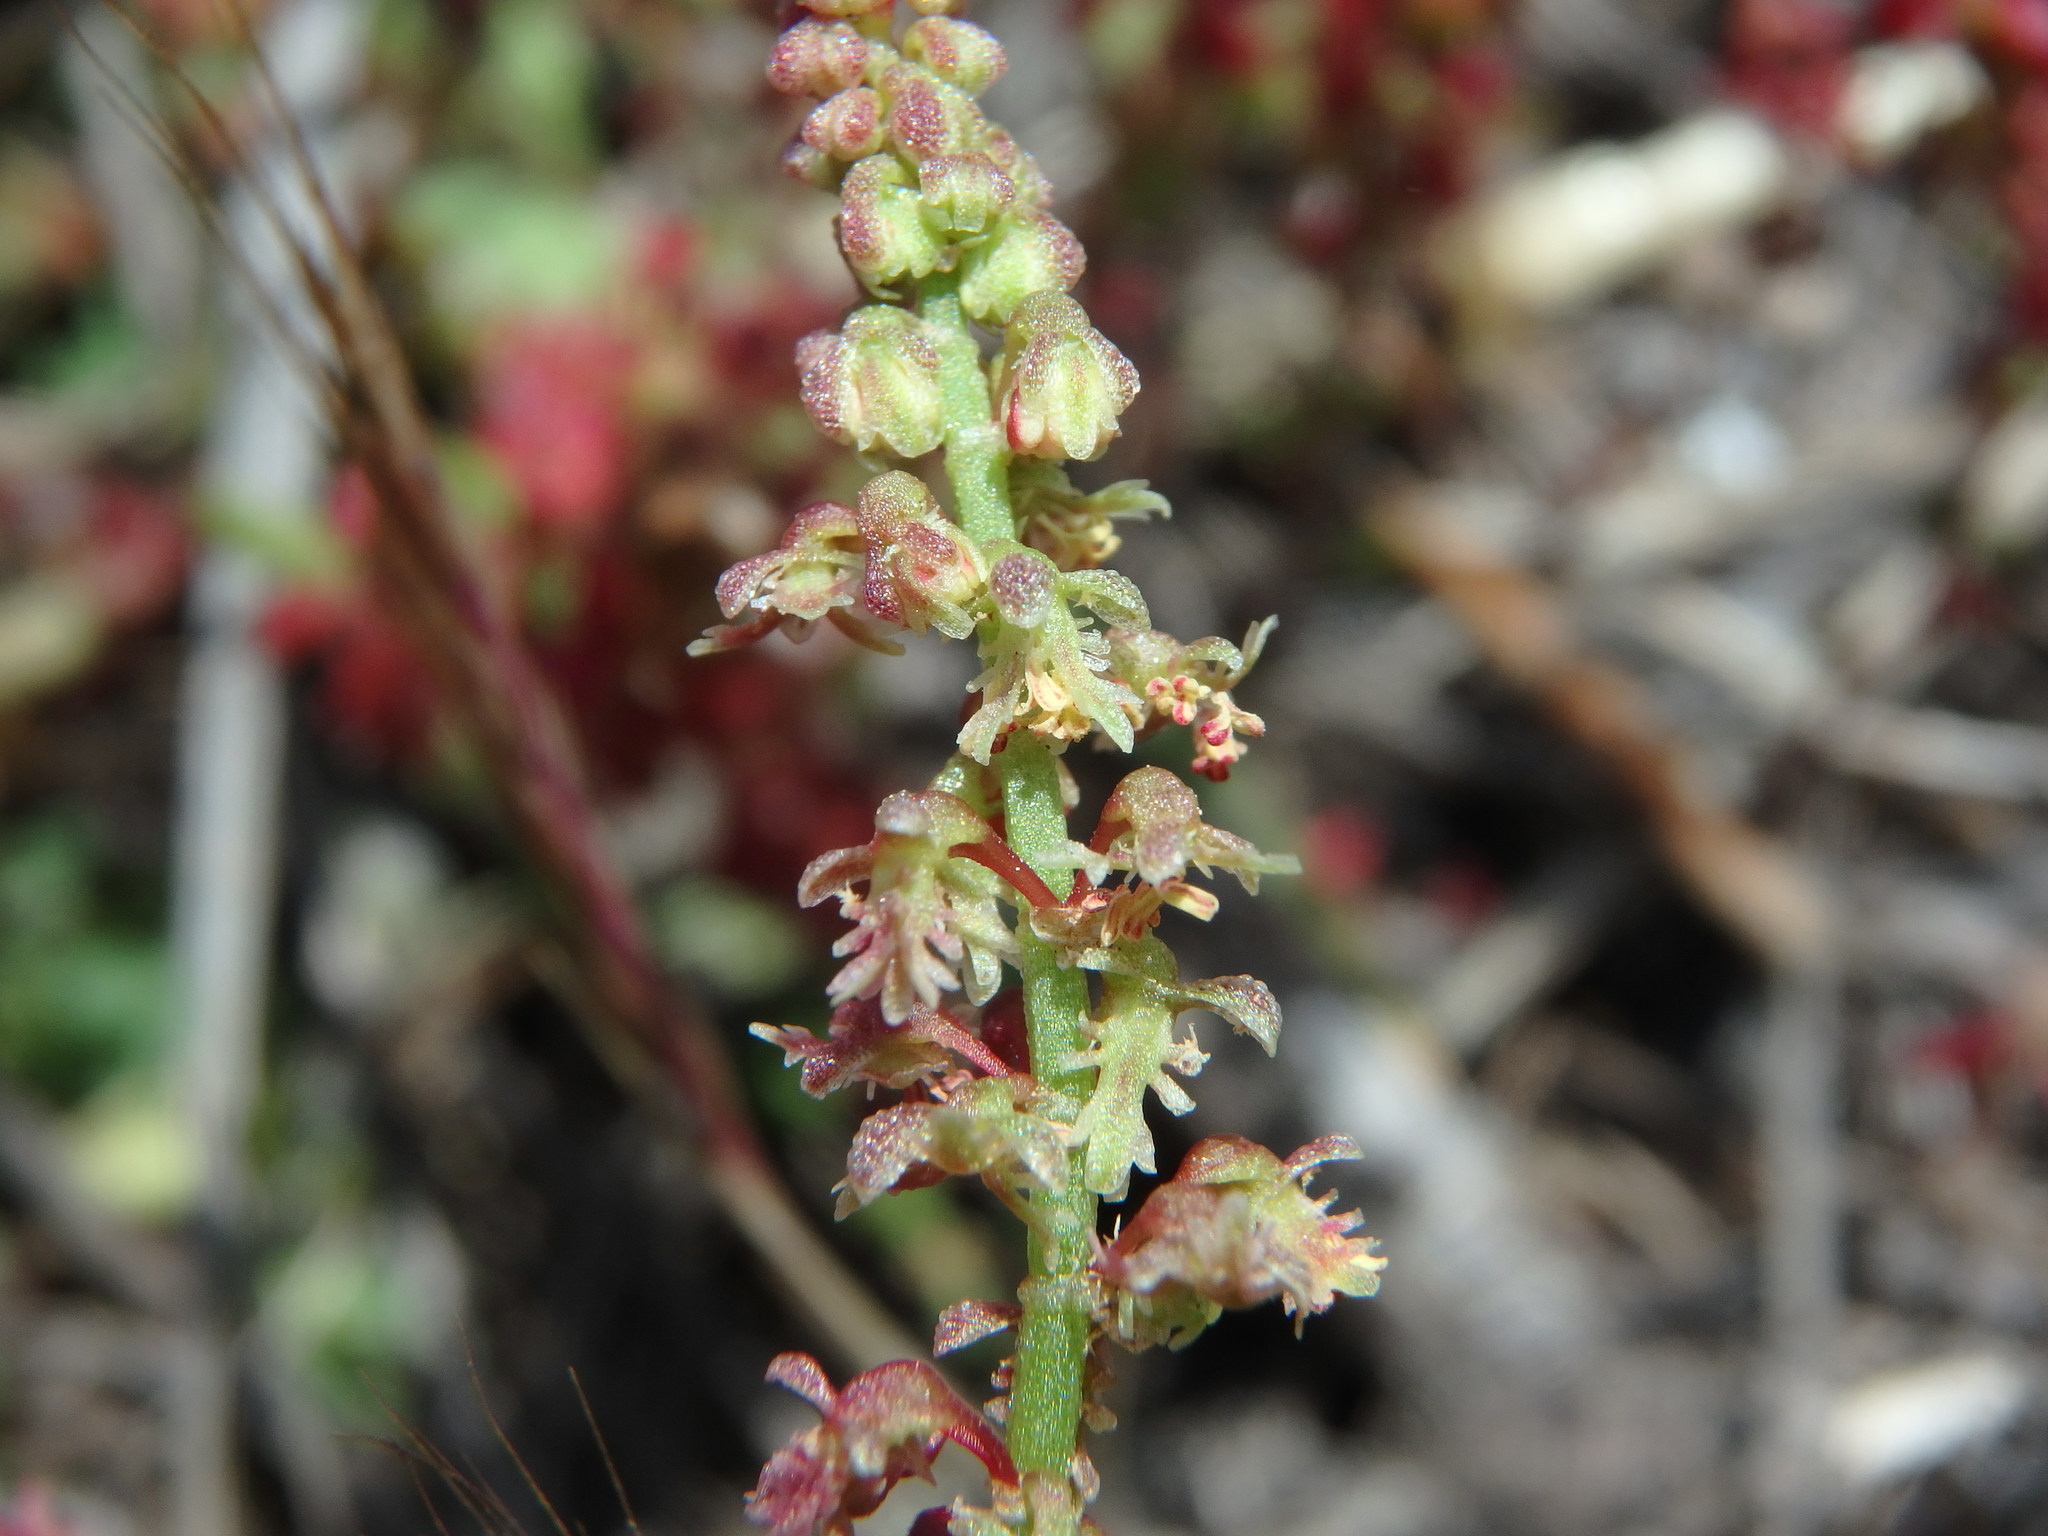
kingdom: Plantae
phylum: Tracheophyta
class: Magnoliopsida
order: Caryophyllales
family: Polygonaceae
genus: Rumex
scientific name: Rumex bucephalophorus
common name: Red dock
